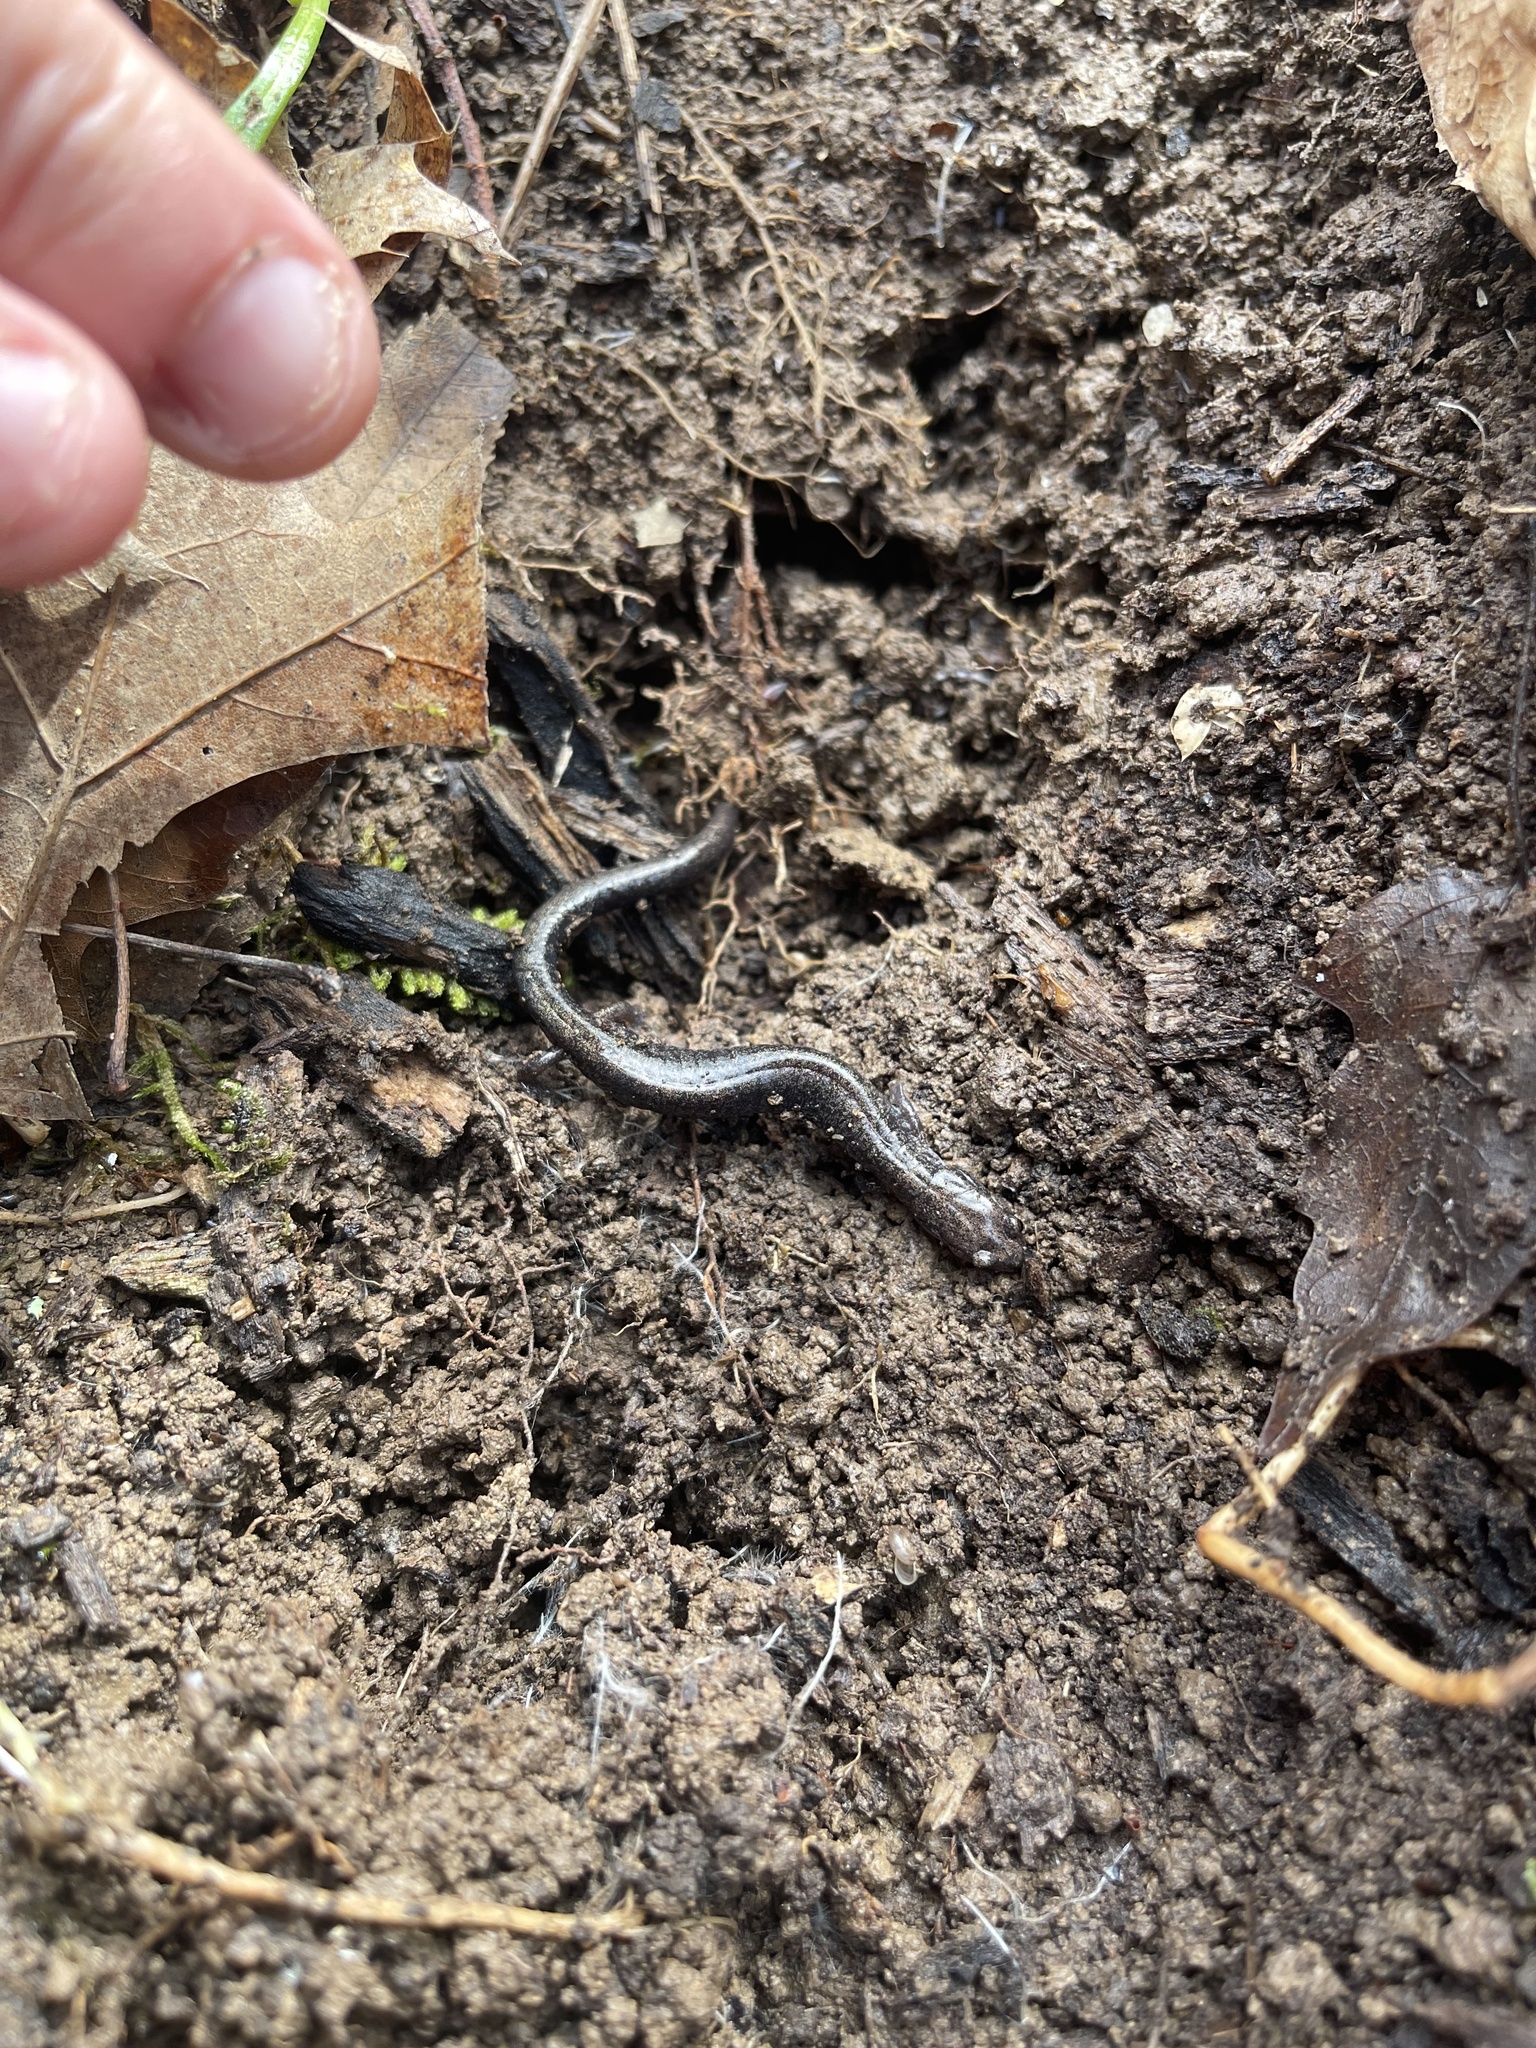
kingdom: Animalia
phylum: Chordata
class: Amphibia
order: Caudata
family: Plethodontidae
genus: Plethodon
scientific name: Plethodon dorsalis
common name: Northern zigzag salamander
